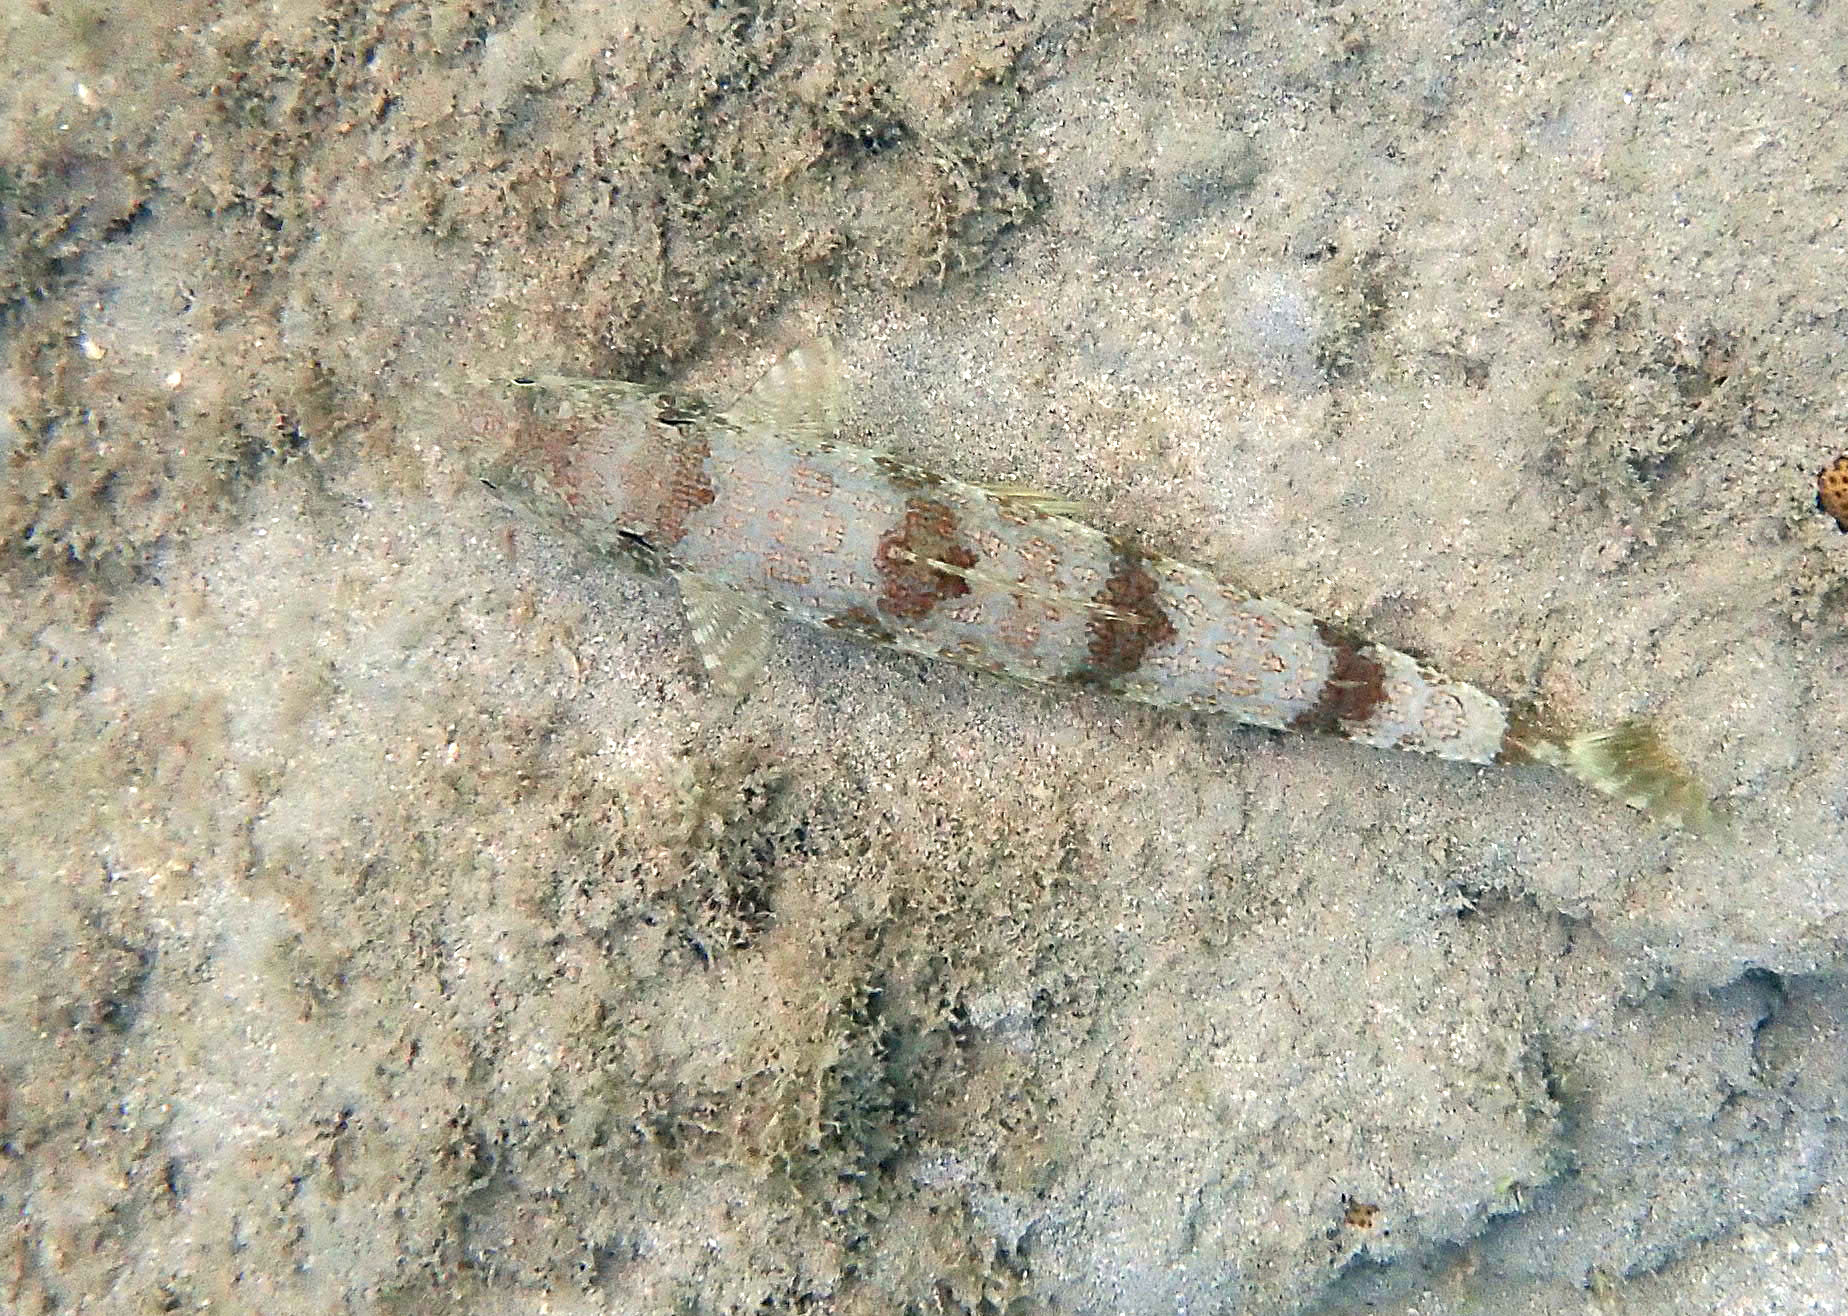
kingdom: Animalia
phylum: Chordata
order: Aulopiformes
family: Synodontidae
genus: Synodus
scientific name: Synodus intermedius
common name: Sand diver
